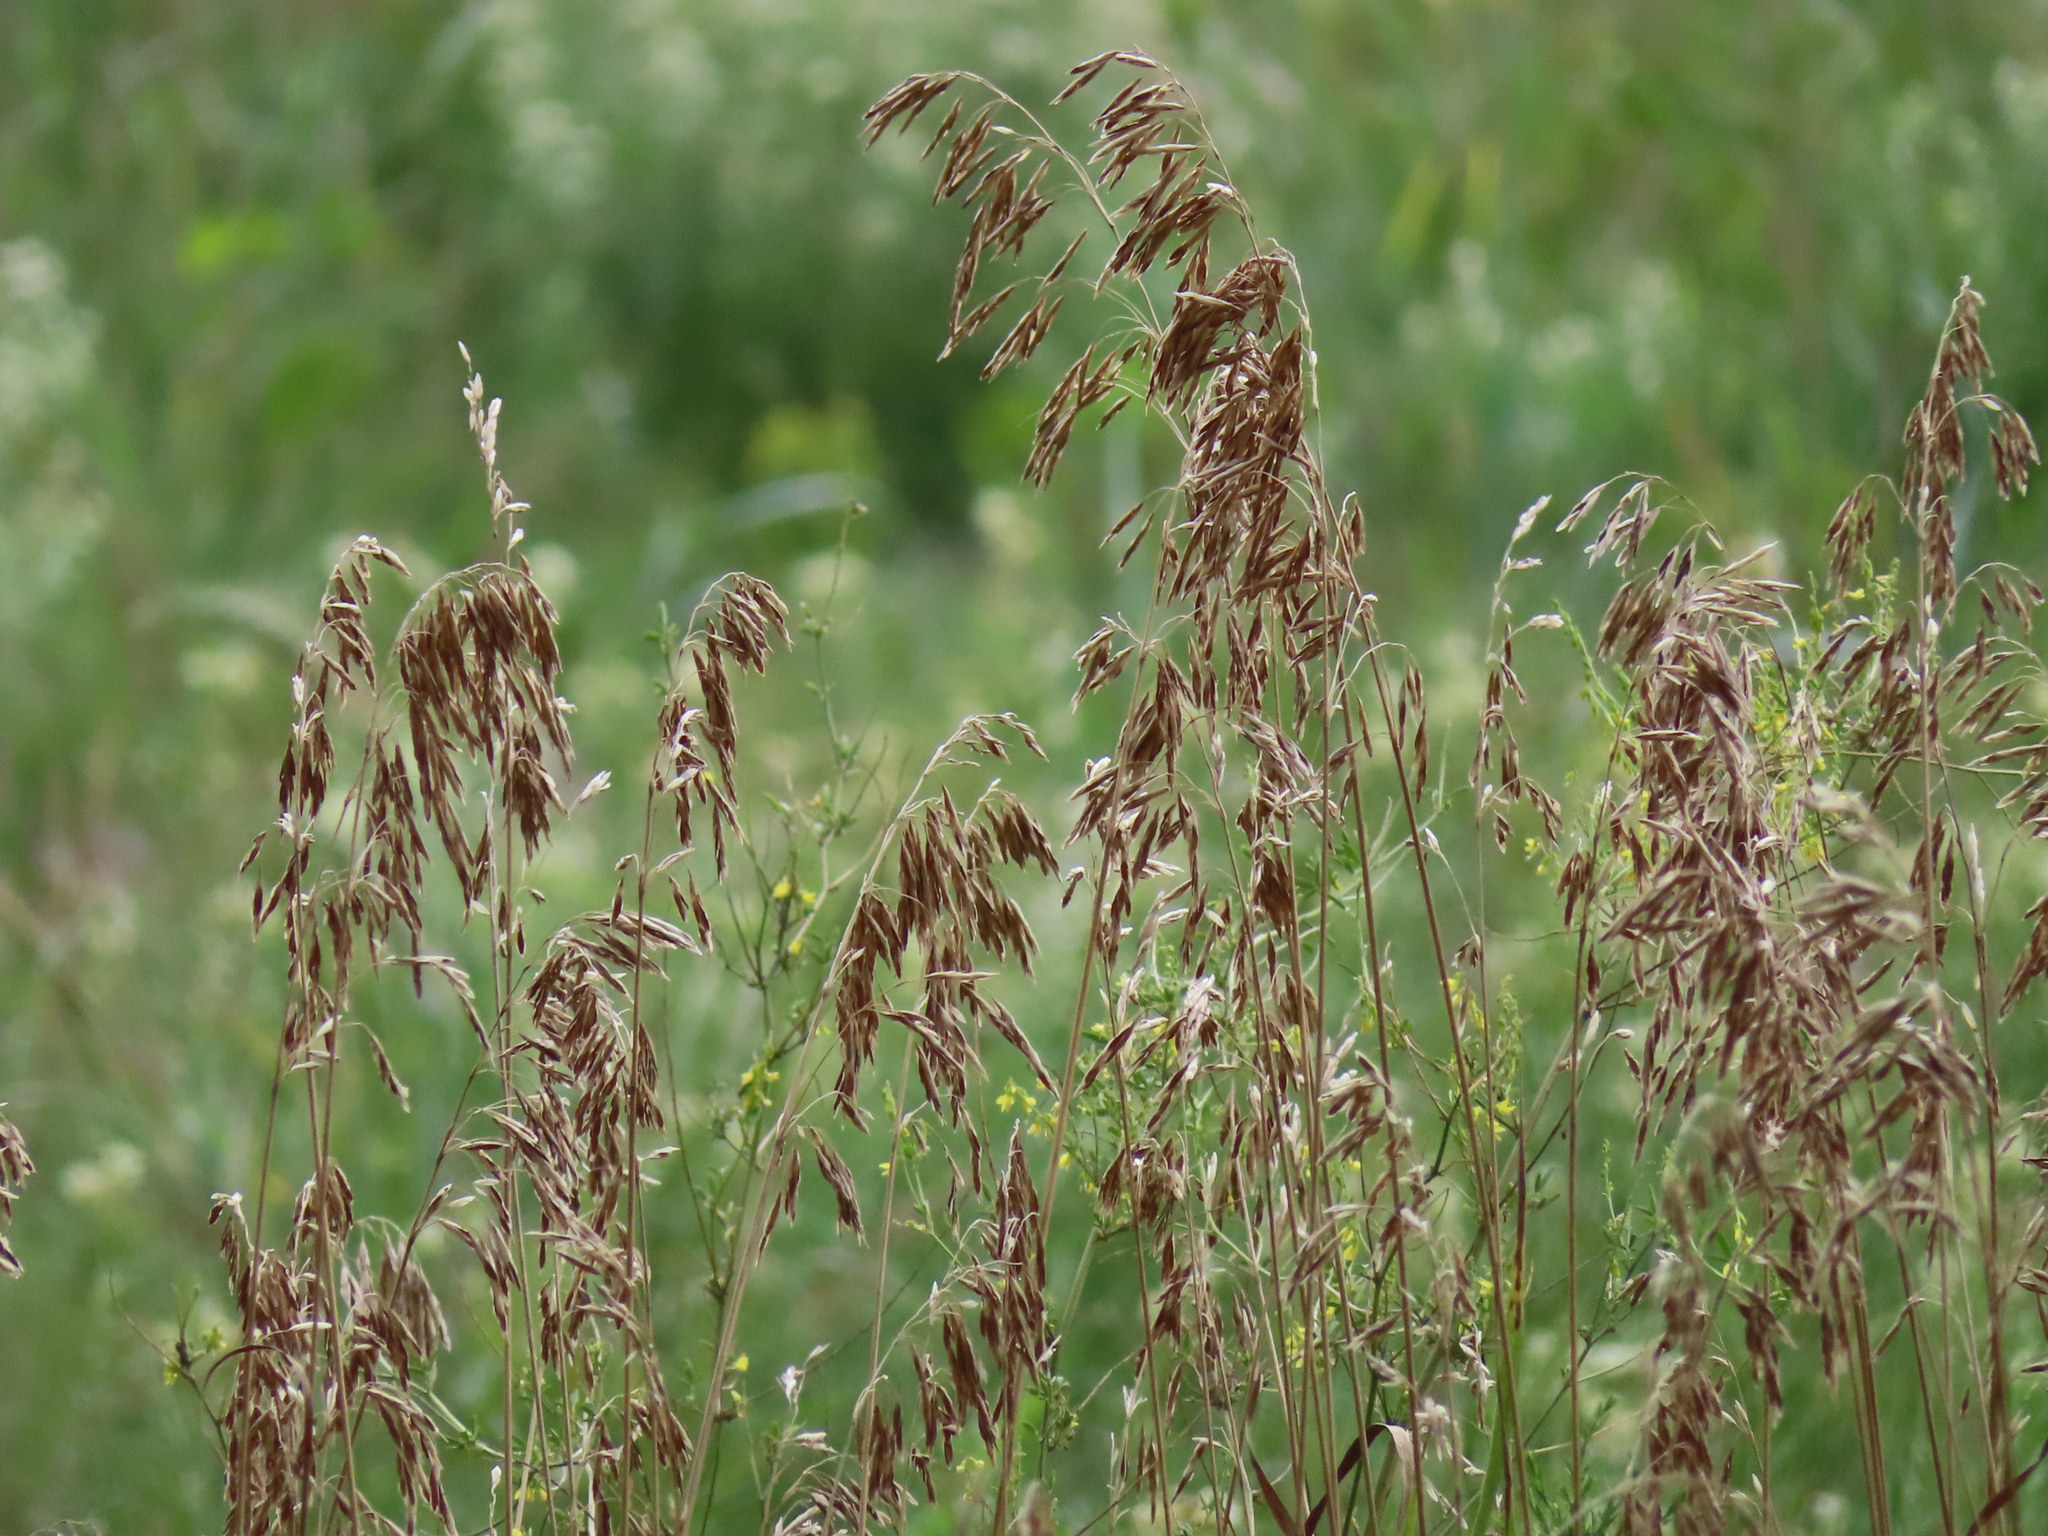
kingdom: Plantae
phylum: Tracheophyta
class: Liliopsida
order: Poales
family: Poaceae
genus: Bromus
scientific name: Bromus inermis
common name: Smooth brome
